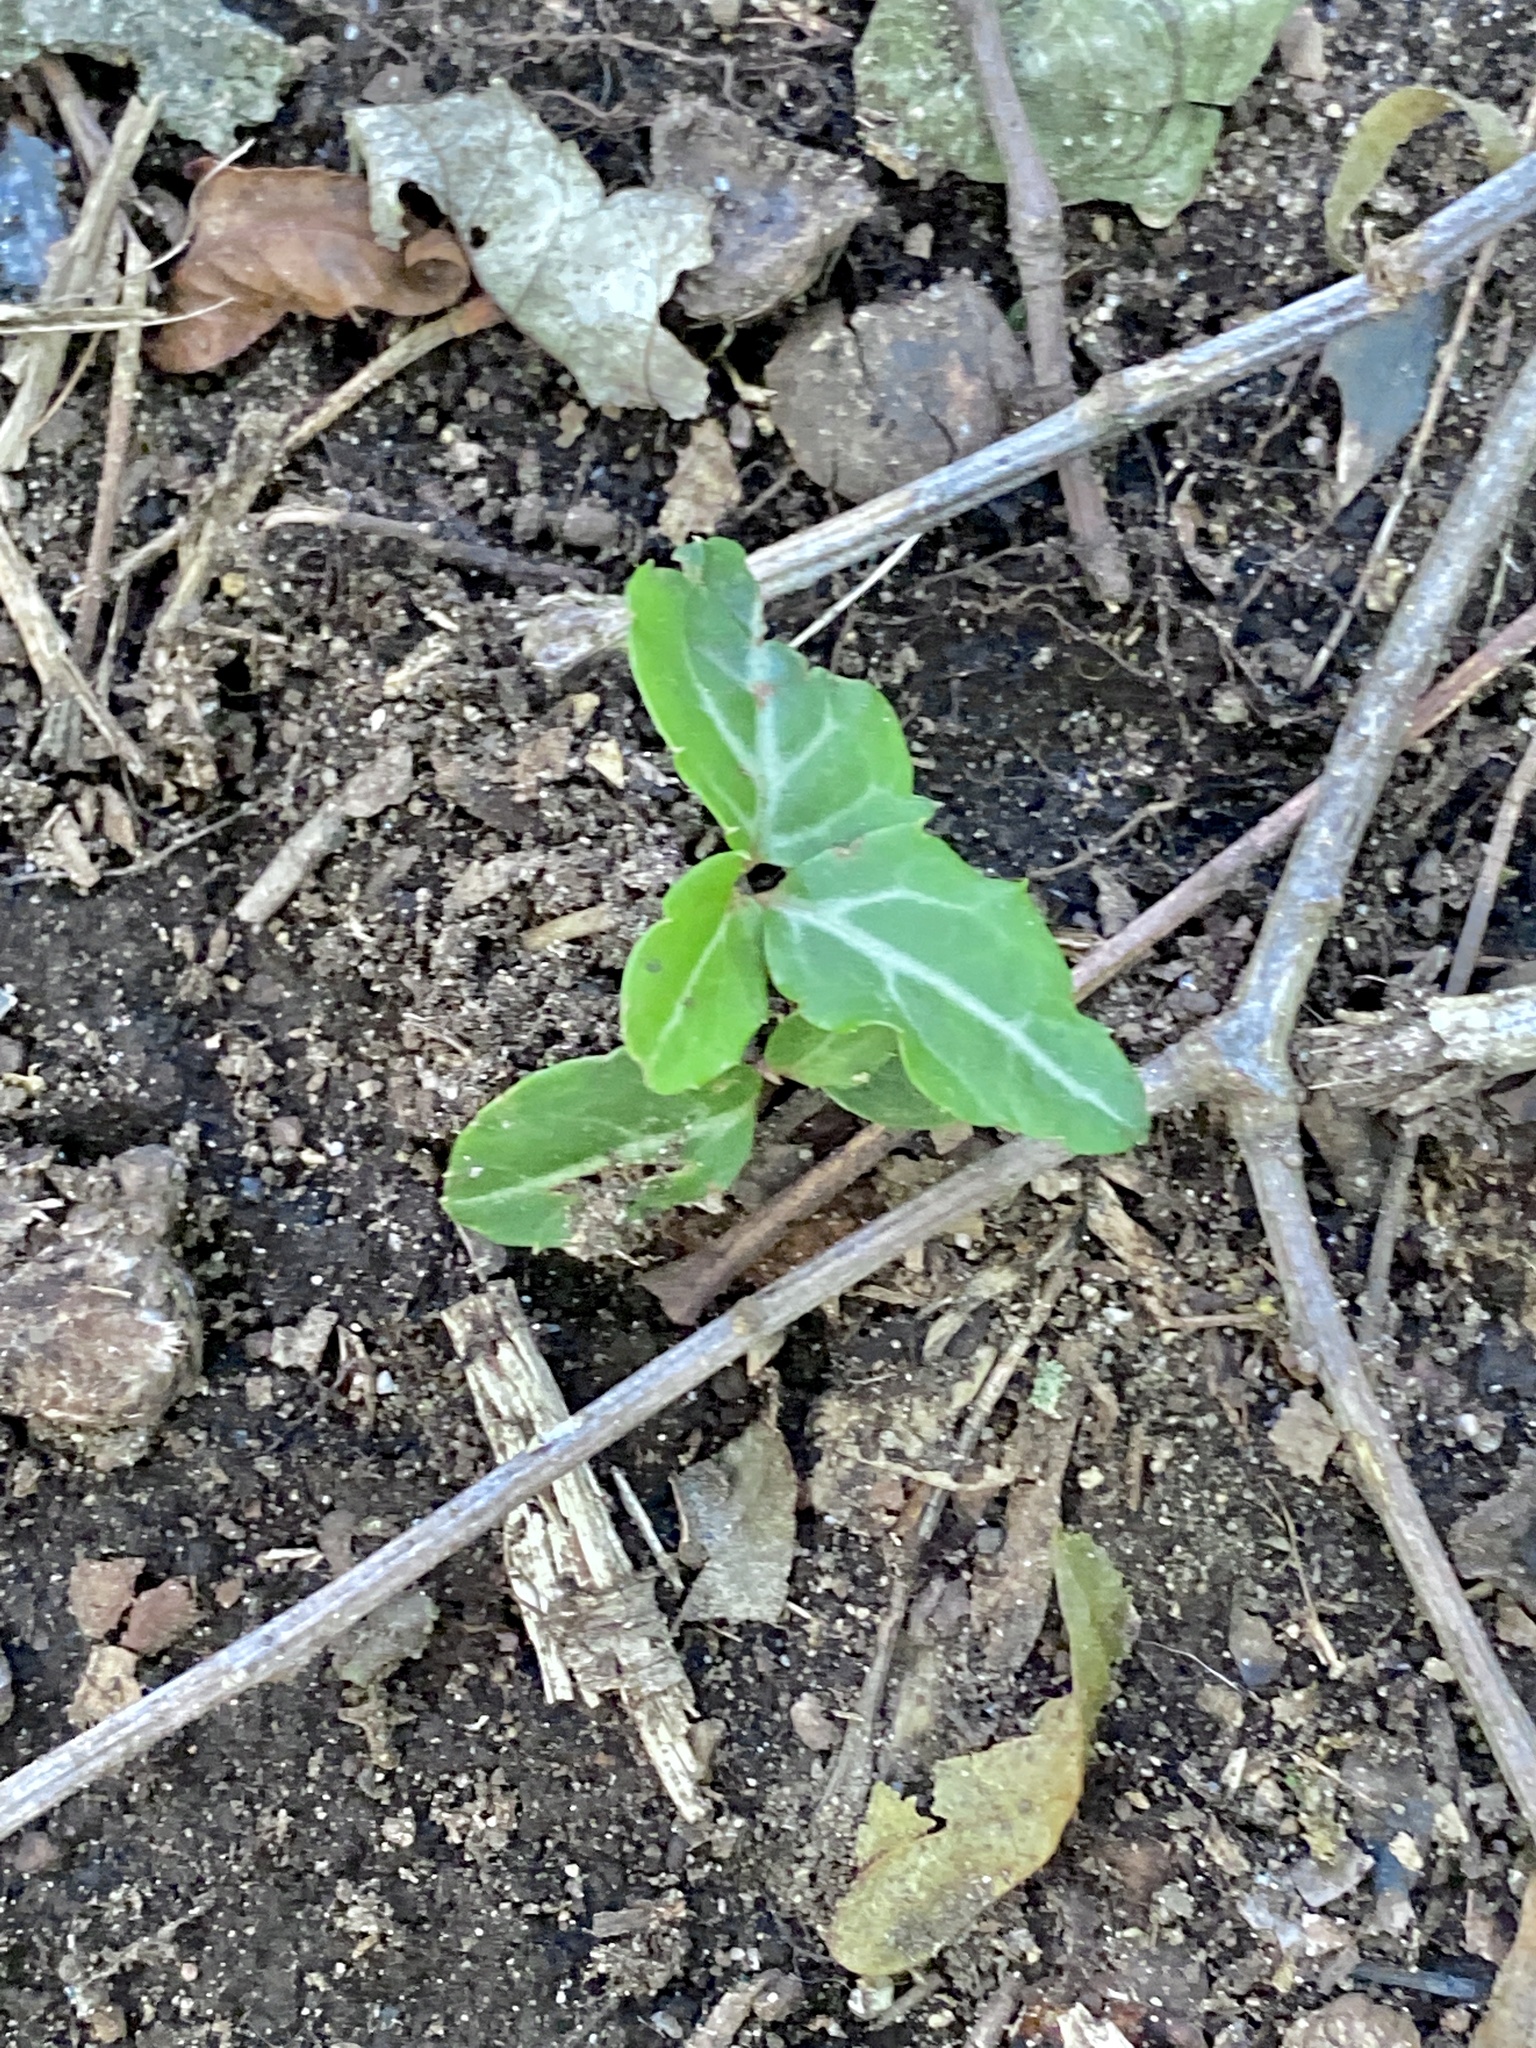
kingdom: Plantae
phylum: Tracheophyta
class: Magnoliopsida
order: Ericales
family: Ericaceae
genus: Chimaphila
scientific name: Chimaphila maculata
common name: Spotted pipsissewa
